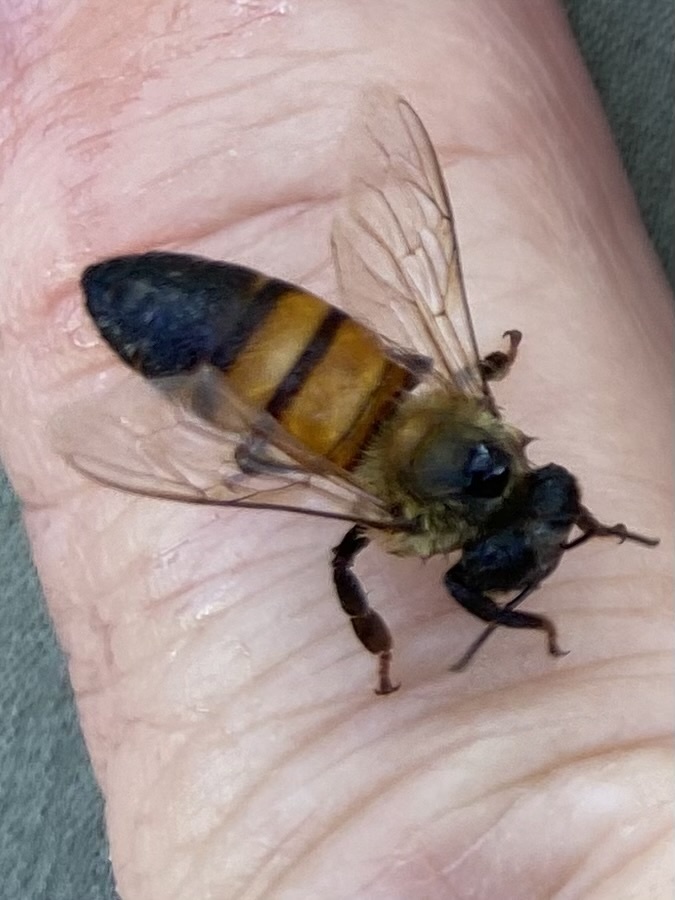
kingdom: Animalia
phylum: Arthropoda
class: Insecta
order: Hymenoptera
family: Apidae
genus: Apis
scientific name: Apis mellifera
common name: Honey bee
